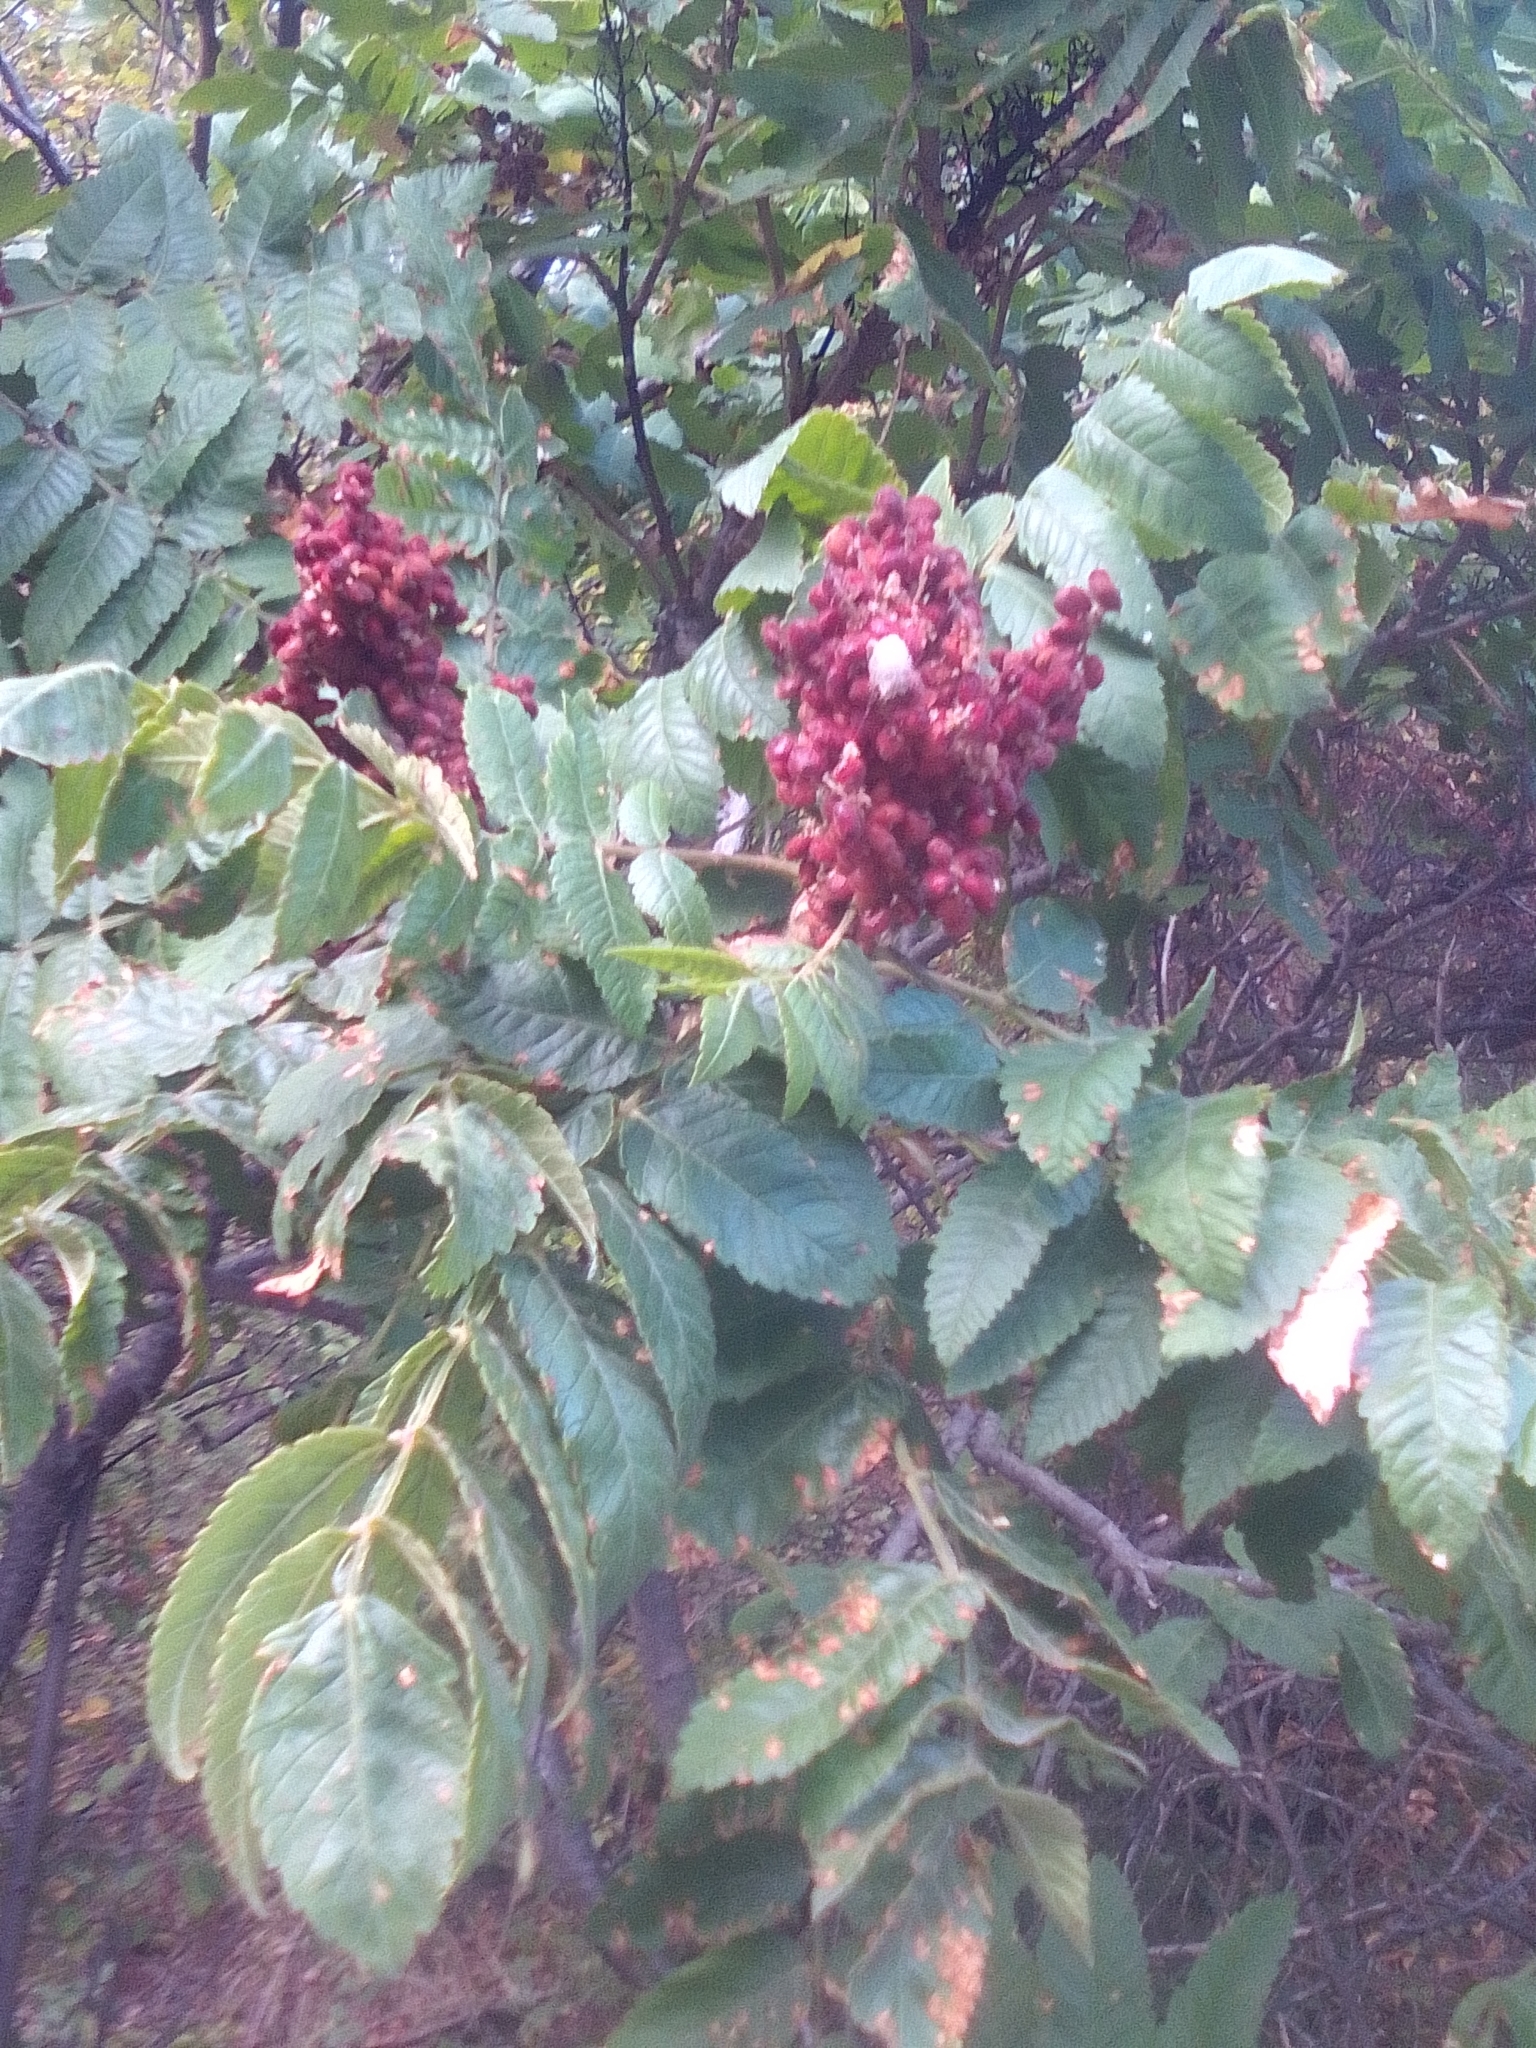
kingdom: Plantae
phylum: Tracheophyta
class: Magnoliopsida
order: Sapindales
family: Anacardiaceae
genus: Rhus
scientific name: Rhus coriaria
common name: Tanner's sumach
